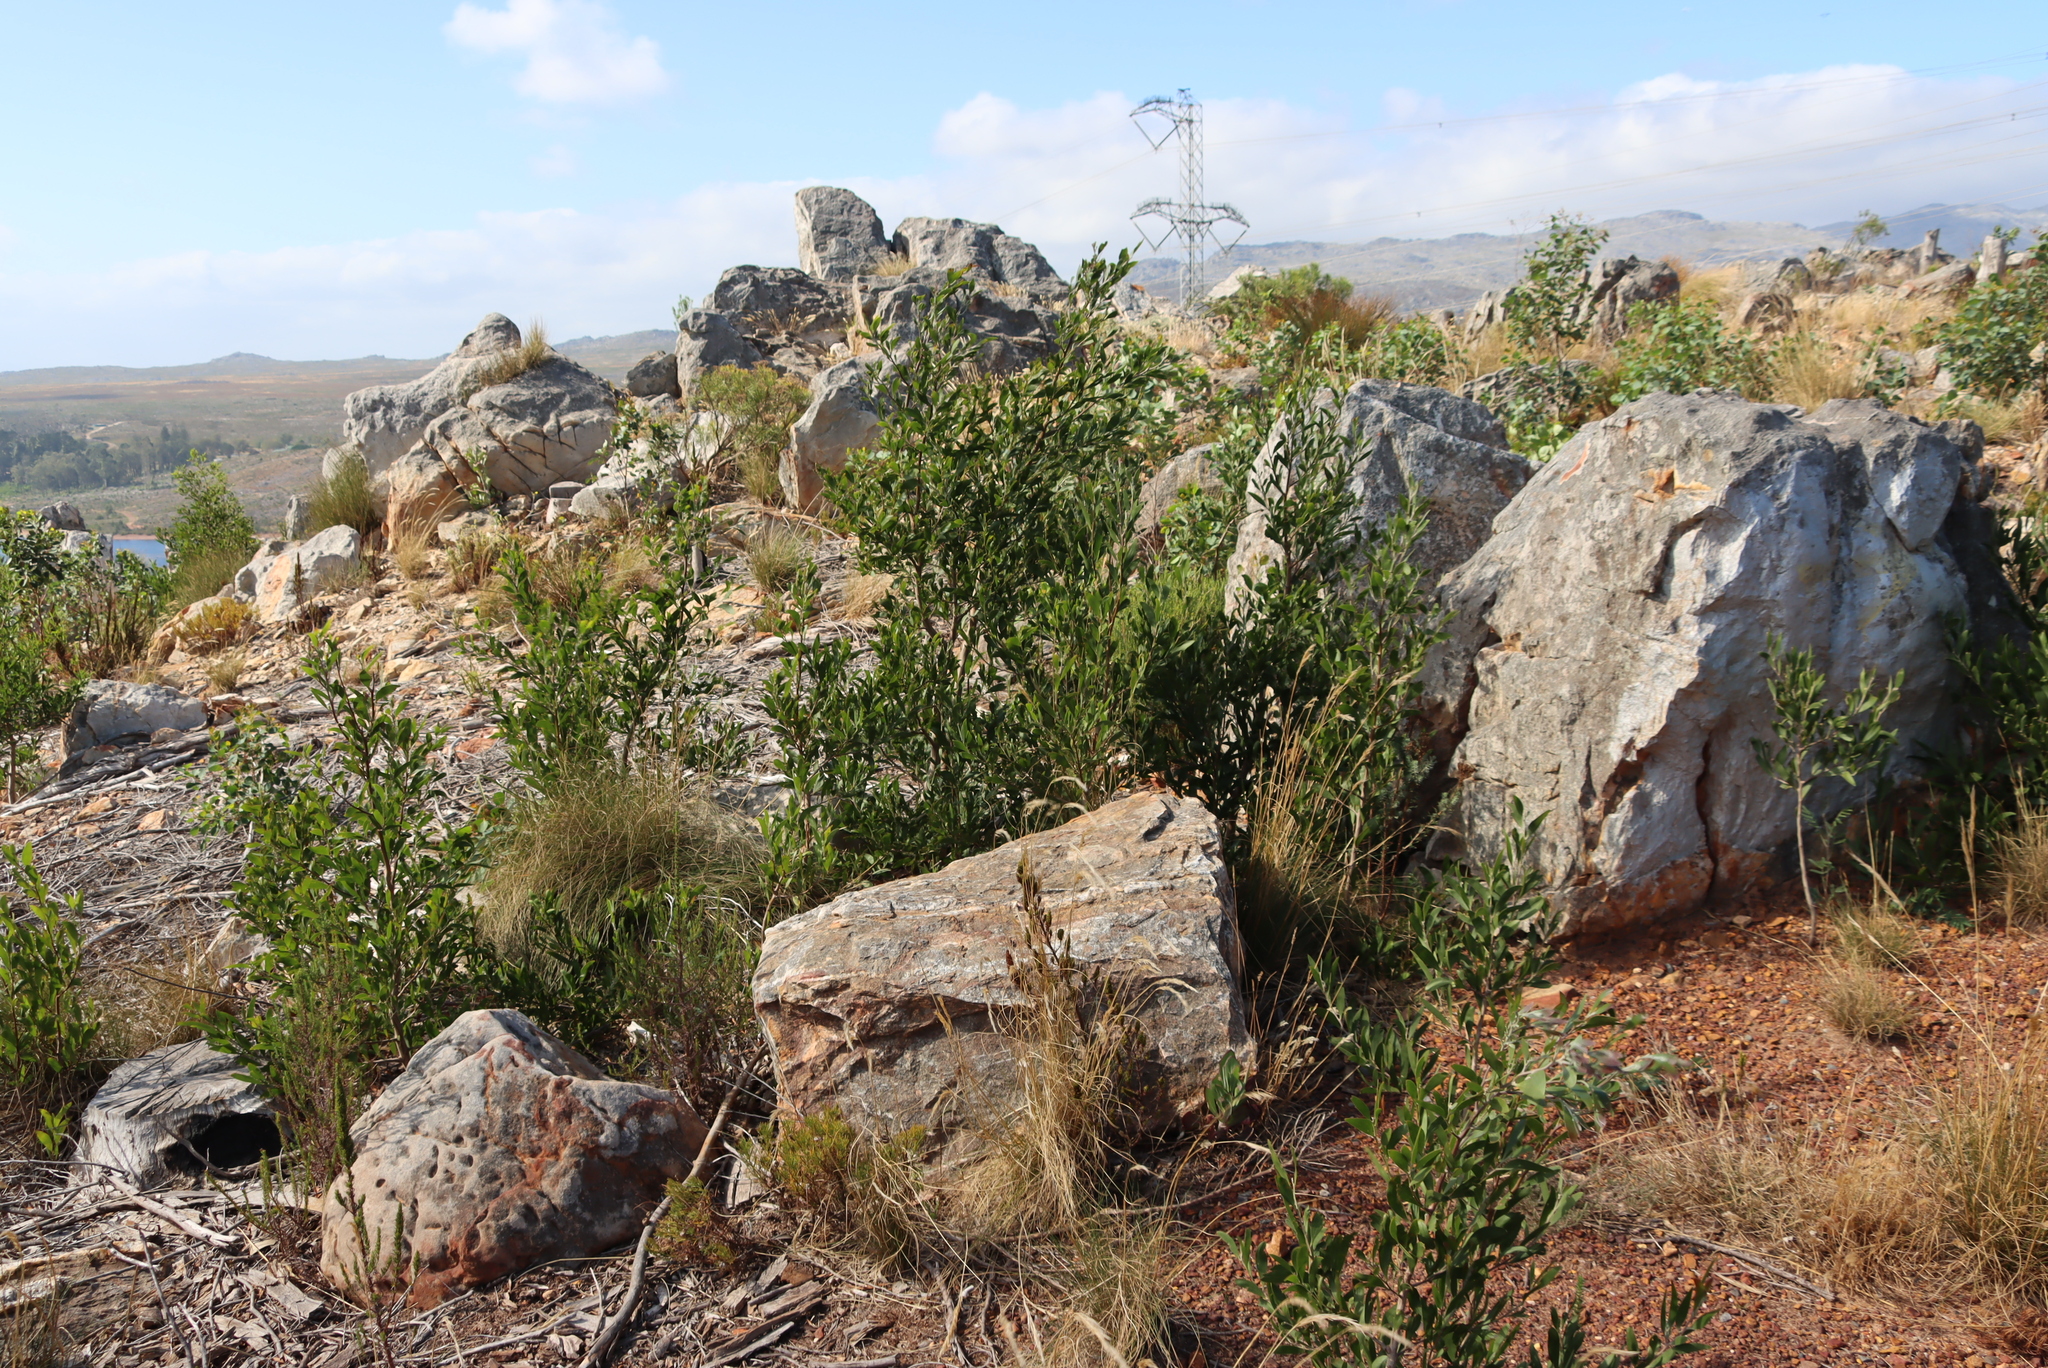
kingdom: Plantae
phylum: Tracheophyta
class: Magnoliopsida
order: Fabales
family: Fabaceae
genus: Acacia
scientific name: Acacia melanoxylon
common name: Blackwood
